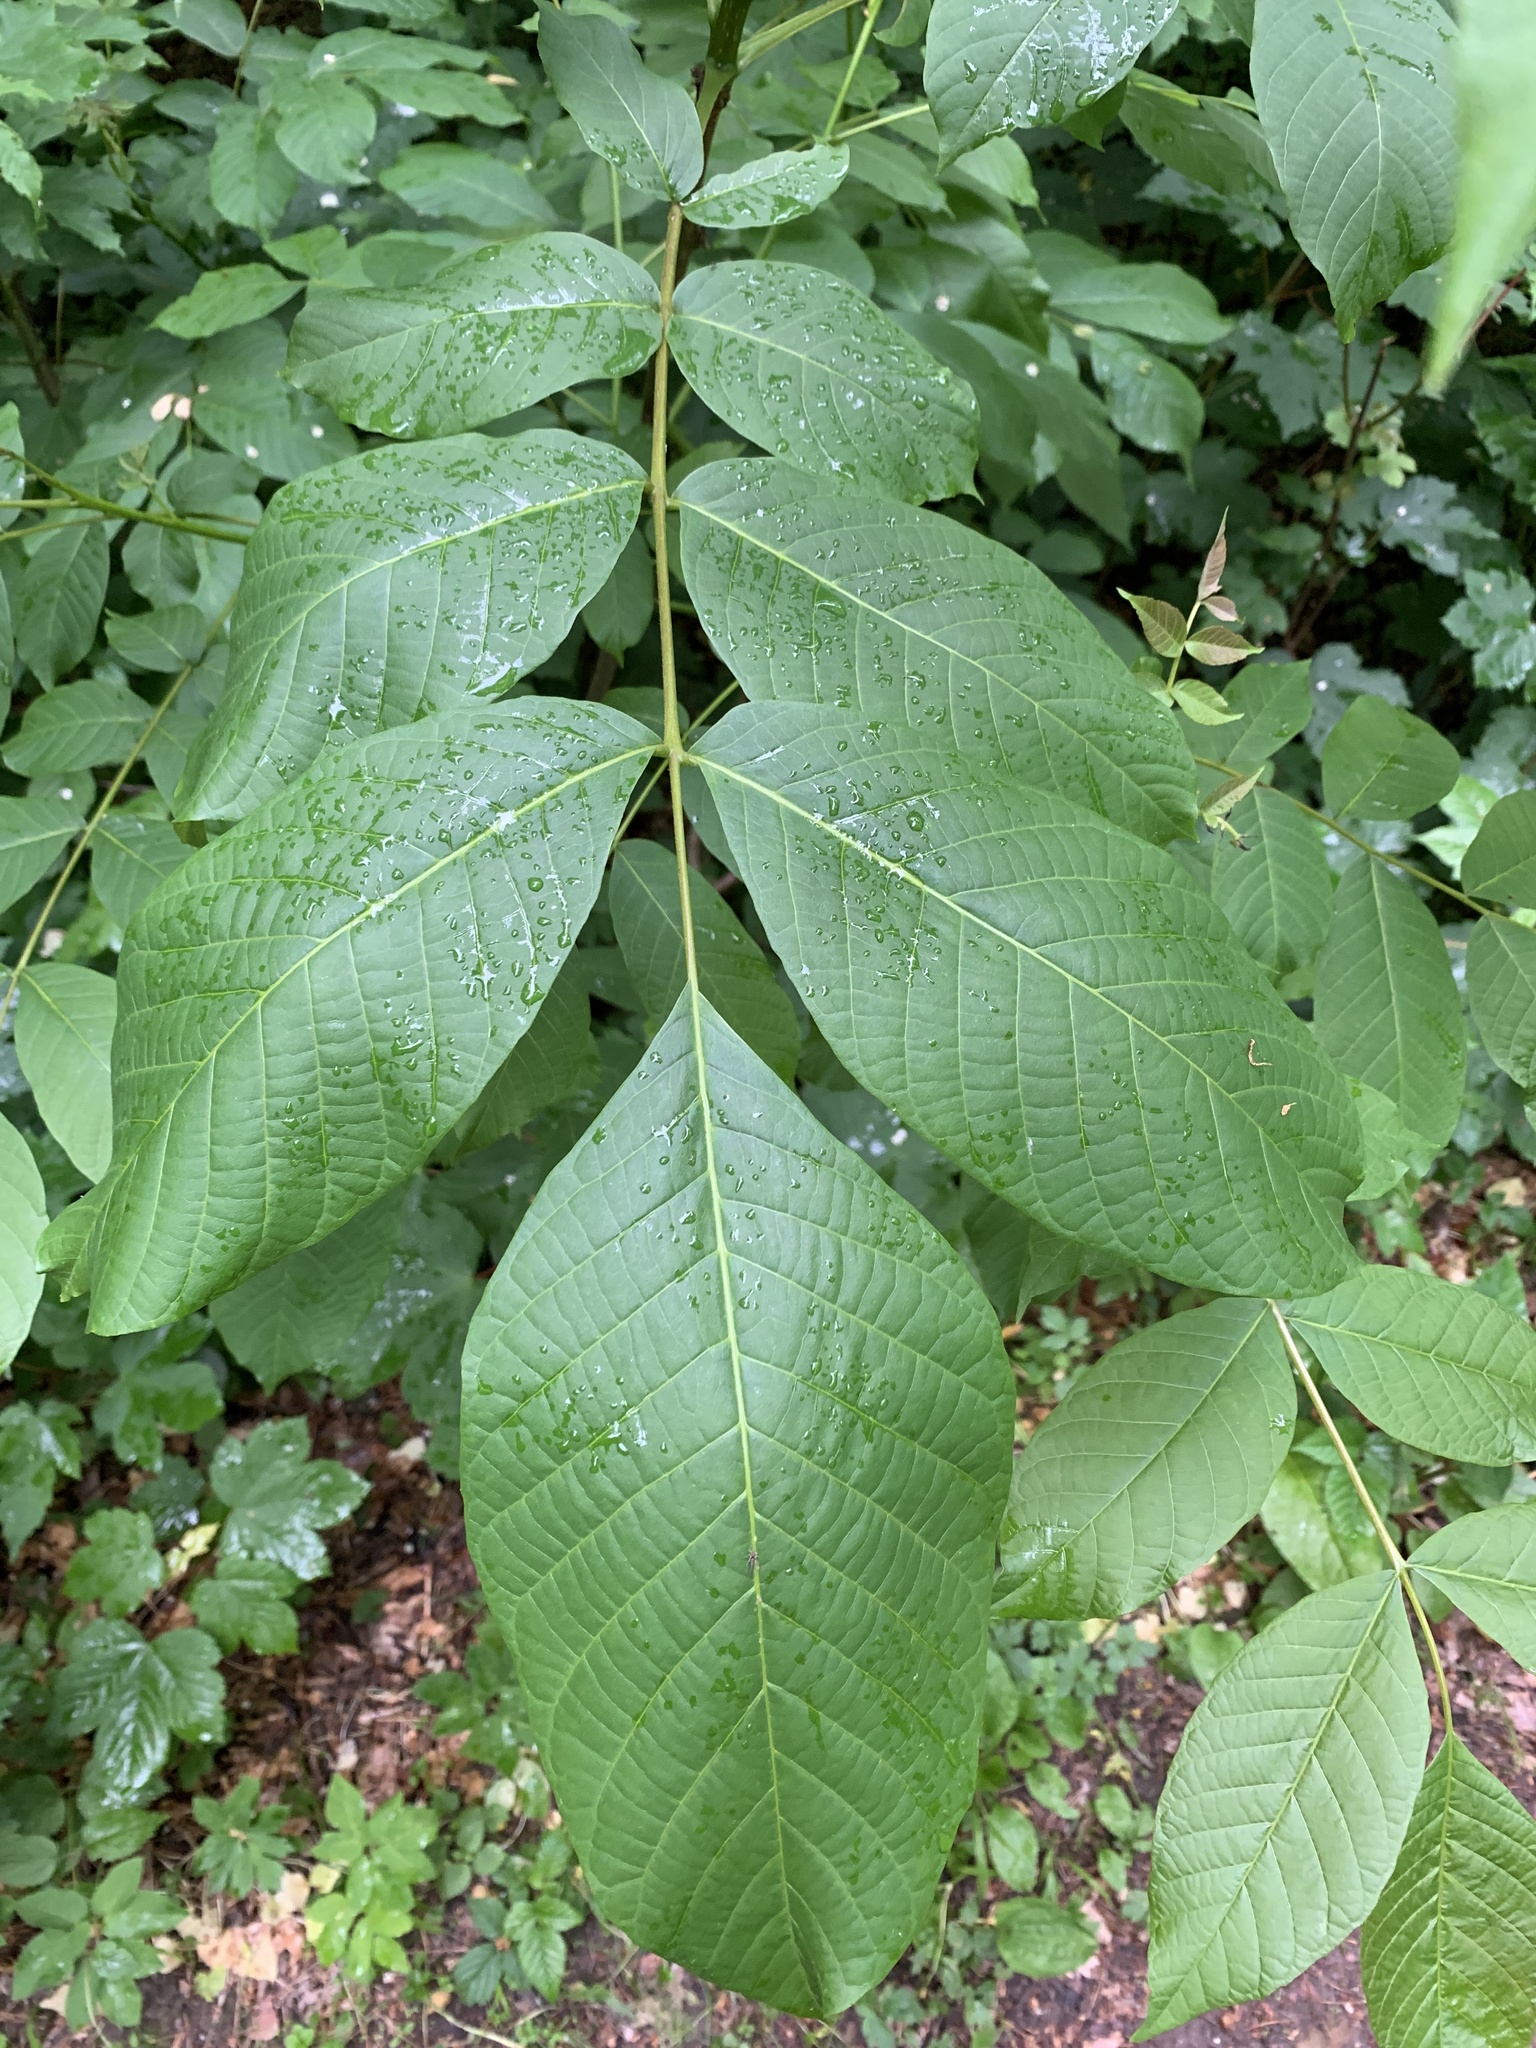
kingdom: Plantae
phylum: Tracheophyta
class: Magnoliopsida
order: Fagales
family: Juglandaceae
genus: Juglans
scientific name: Juglans regia
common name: Walnut
